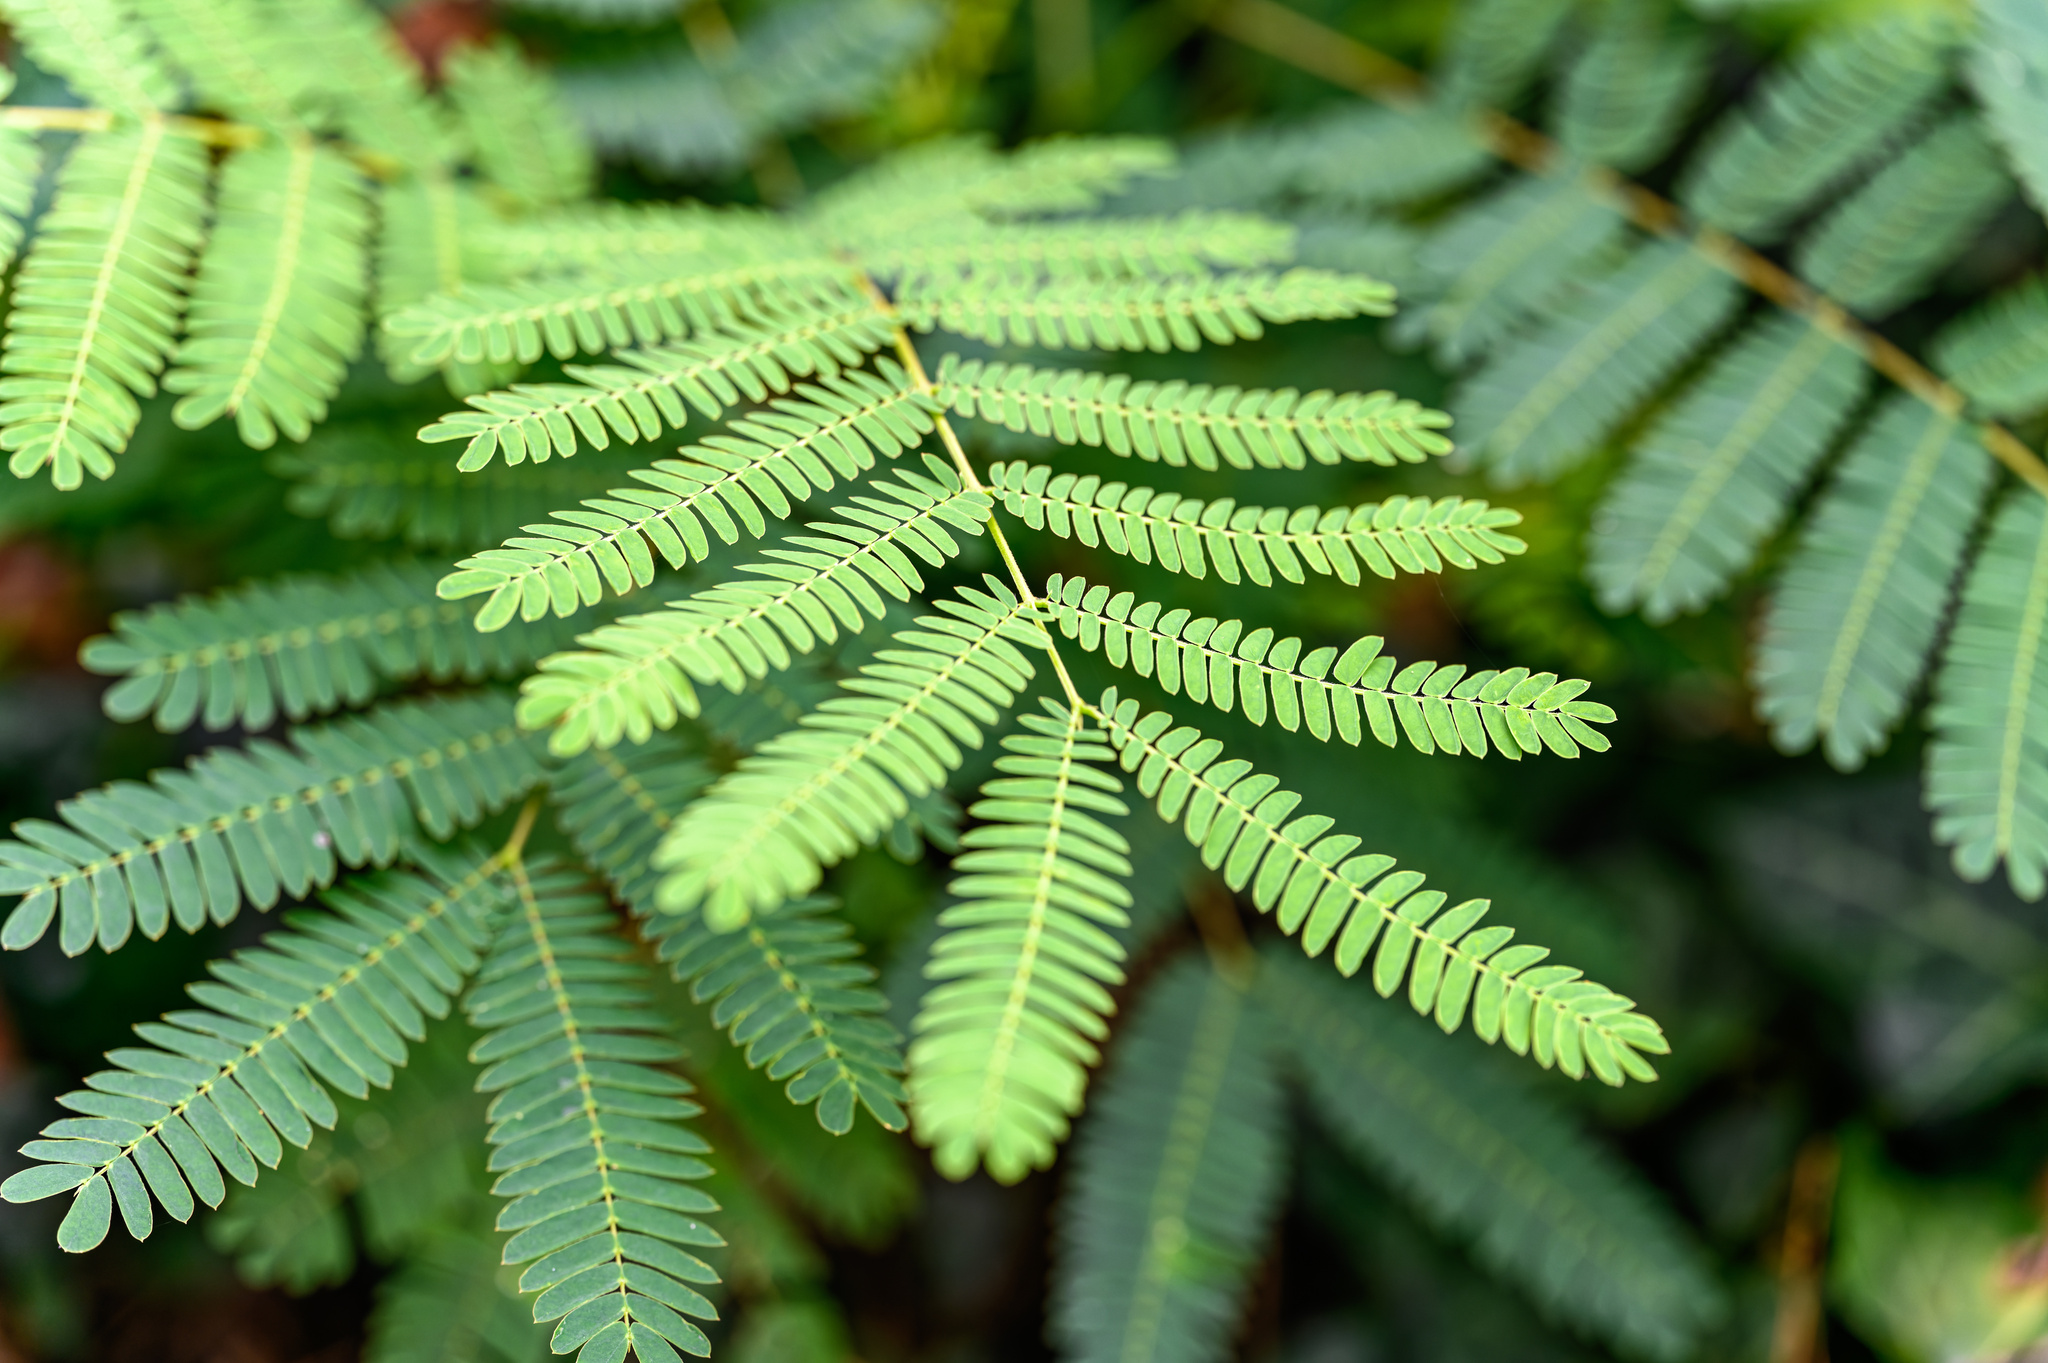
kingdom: Plantae
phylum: Tracheophyta
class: Magnoliopsida
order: Fabales
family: Fabaceae
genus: Albizia
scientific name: Albizia julibrissin
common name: Silktree
